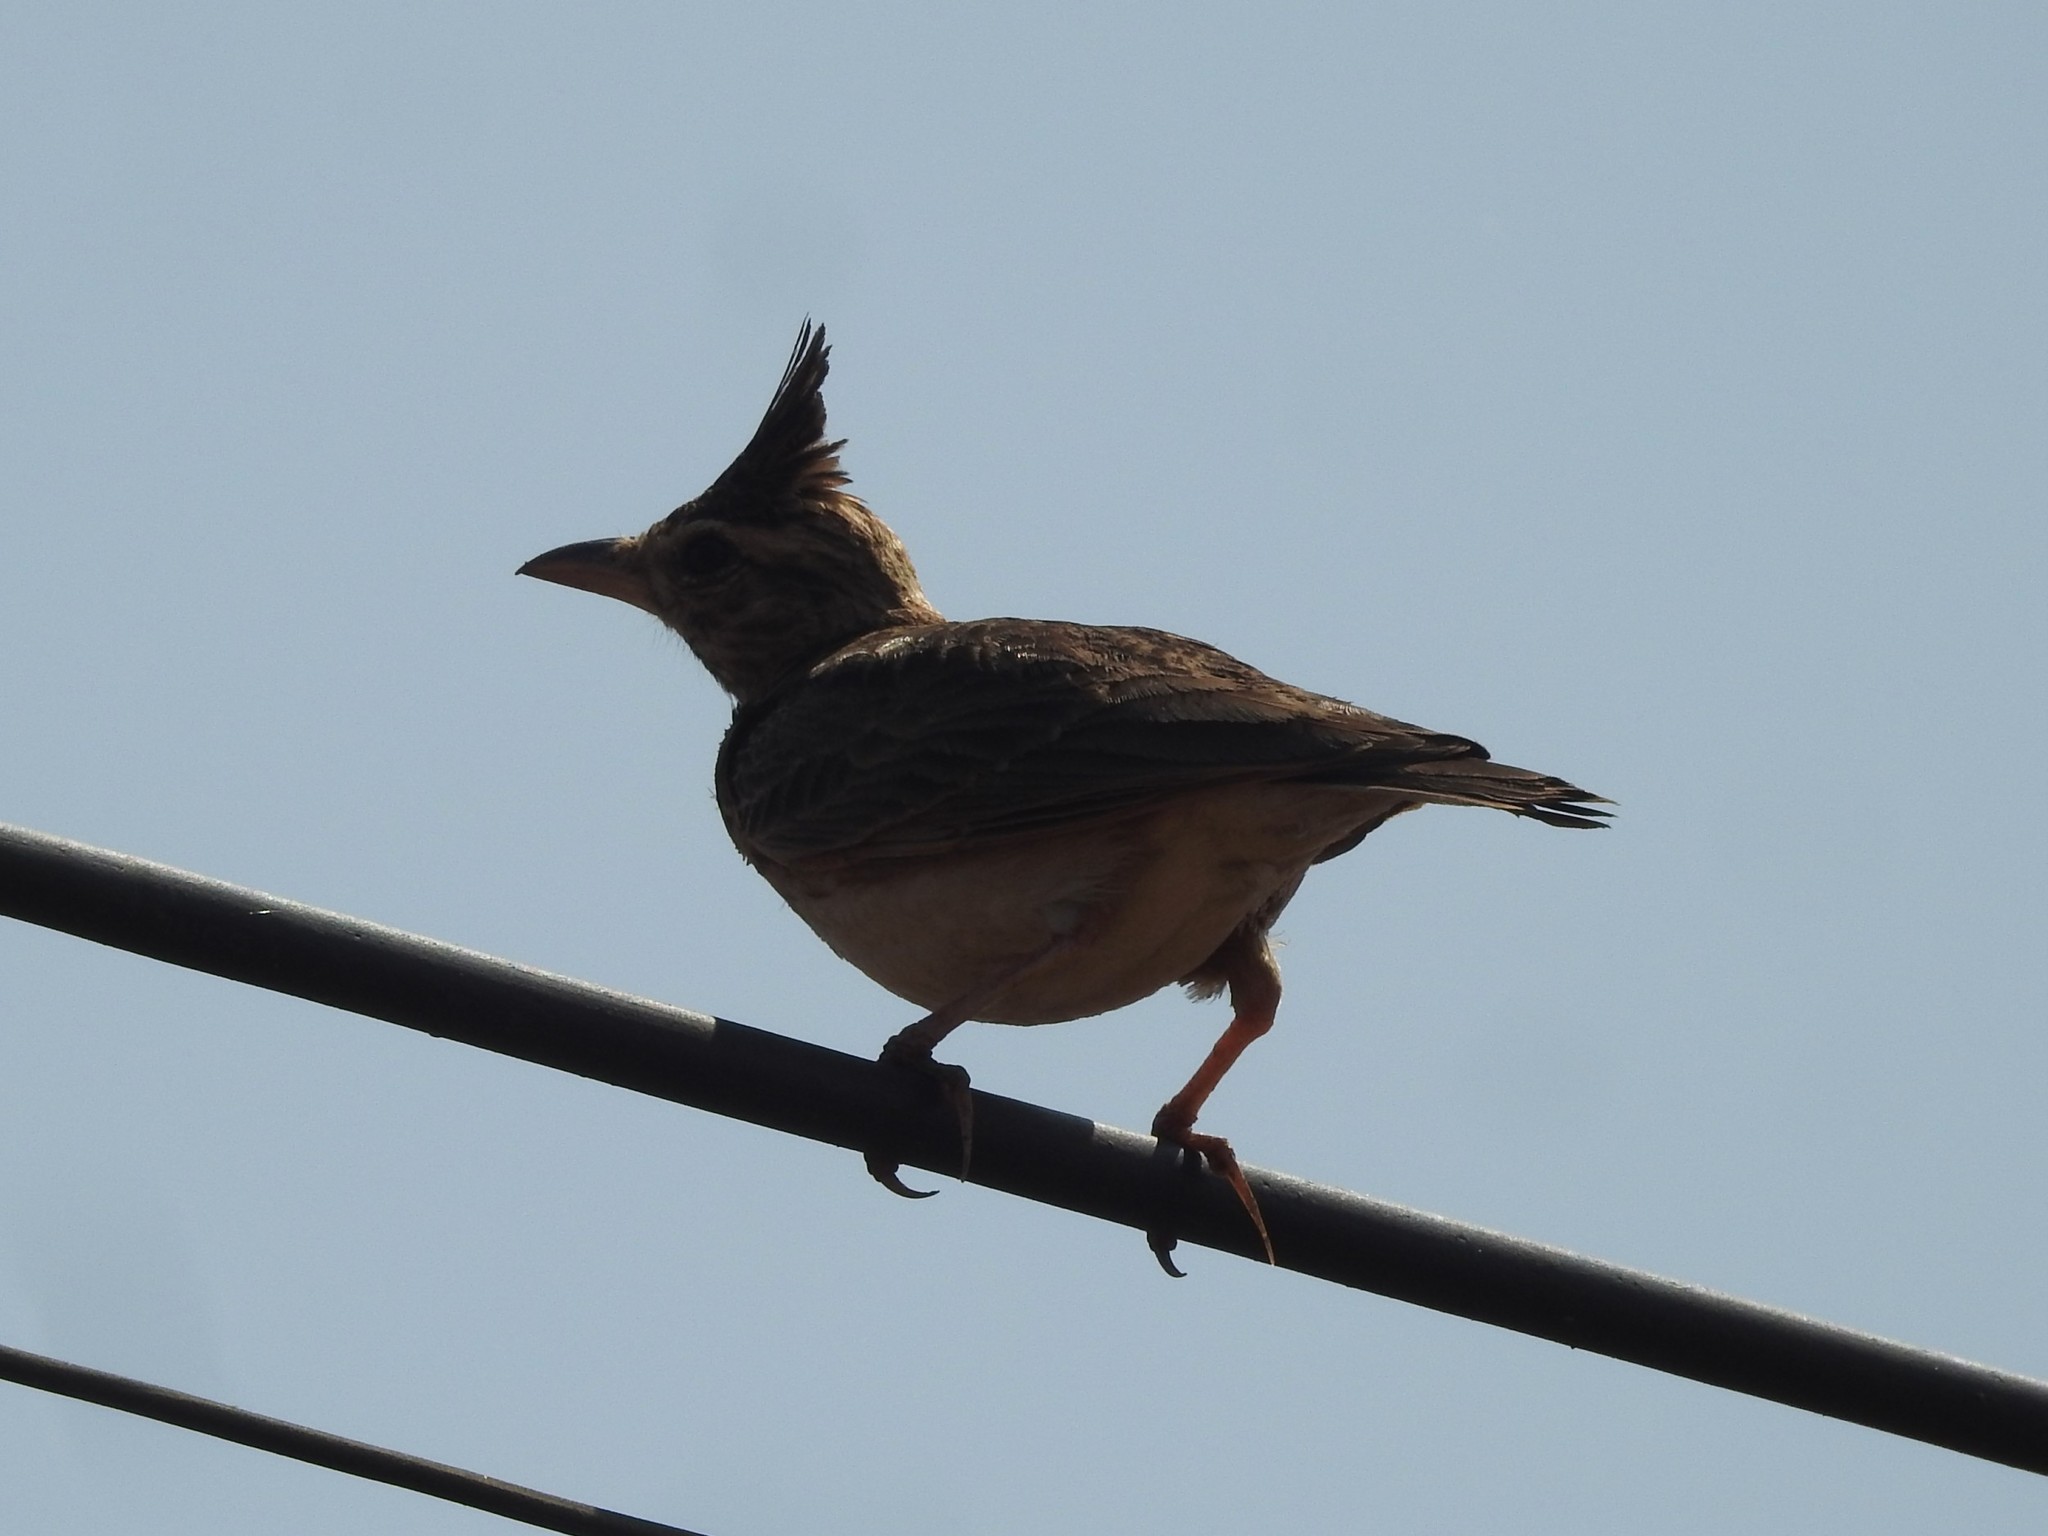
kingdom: Animalia
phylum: Chordata
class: Aves
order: Passeriformes
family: Alaudidae
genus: Galerida
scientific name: Galerida malabarica
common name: Malabar lark
